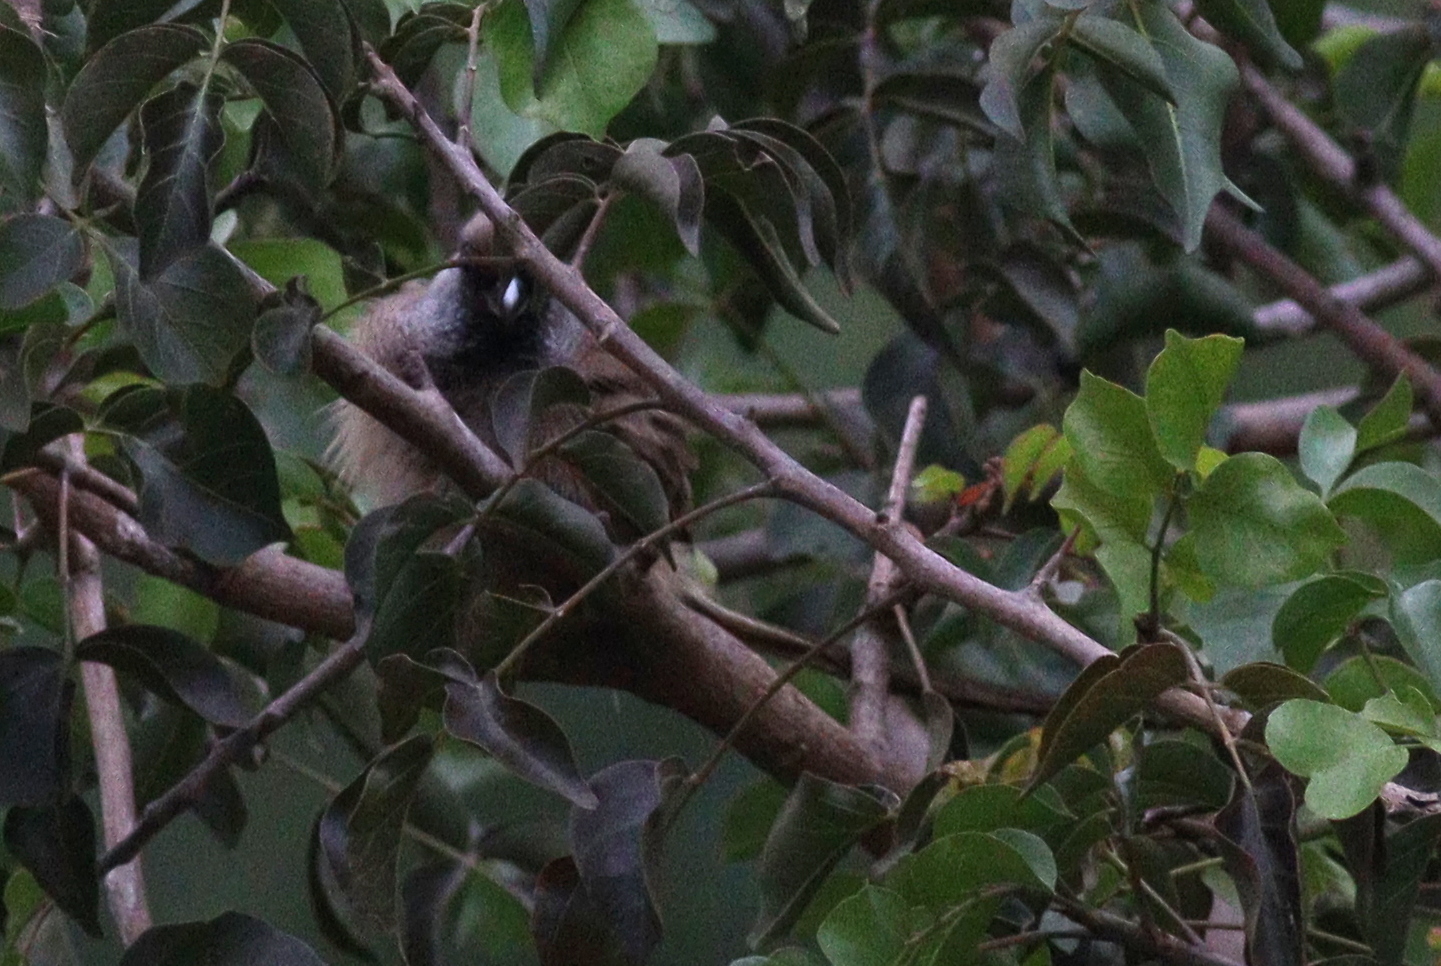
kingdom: Animalia
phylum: Chordata
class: Aves
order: Coliiformes
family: Coliidae
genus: Colius
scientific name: Colius striatus
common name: Speckled mousebird
